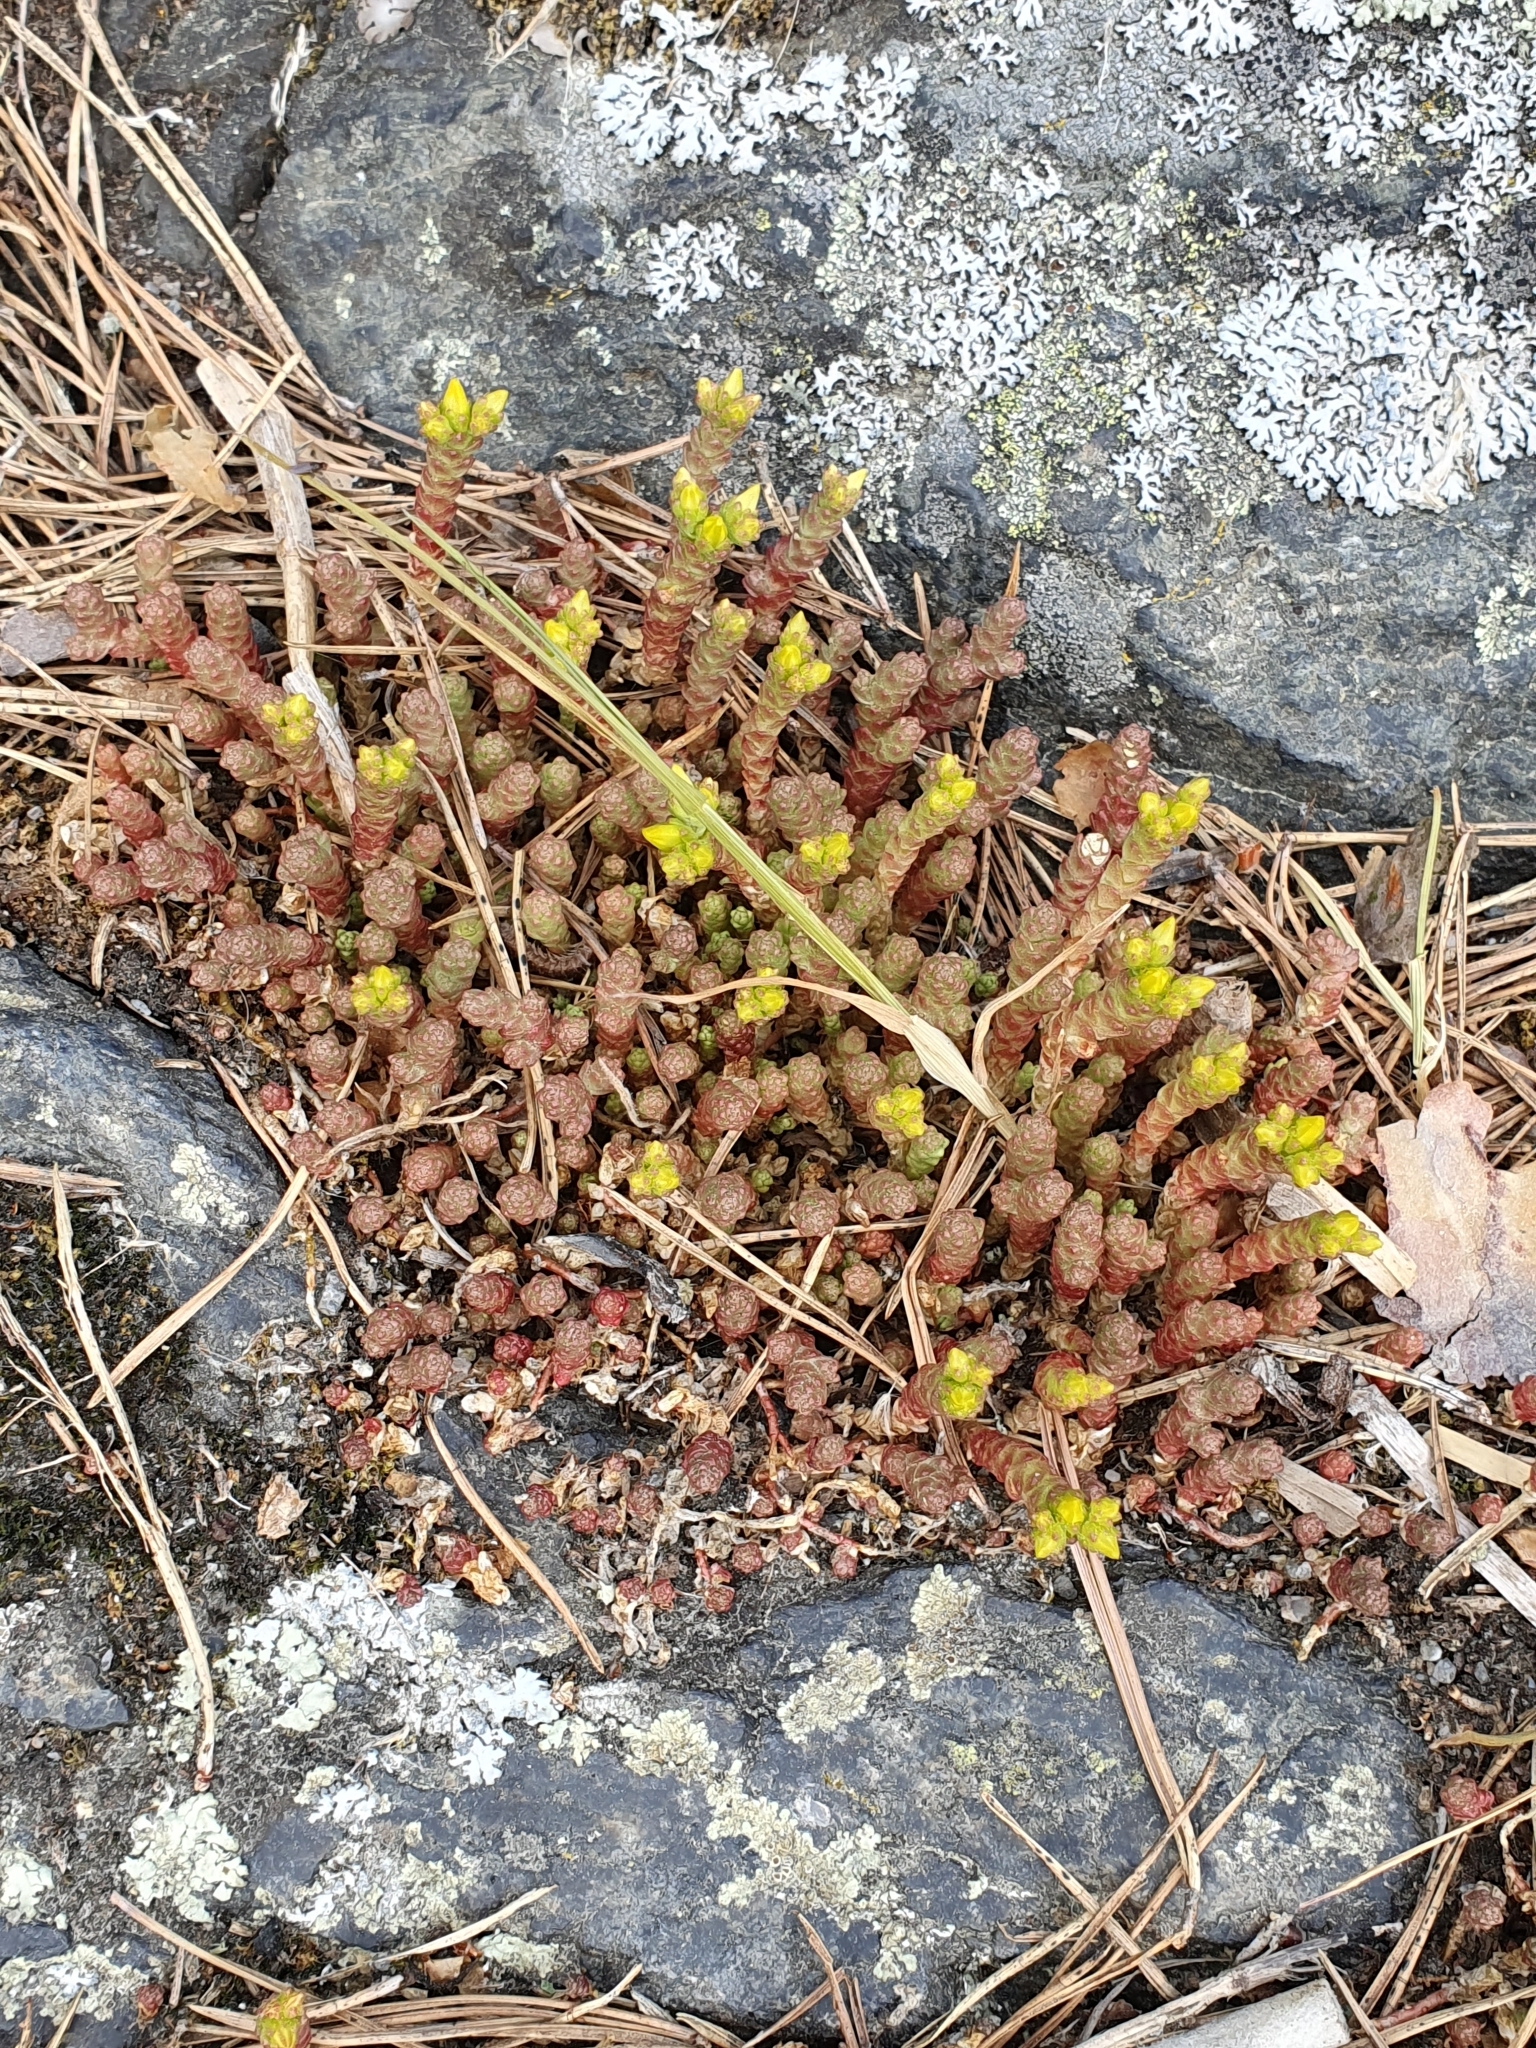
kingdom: Plantae
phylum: Tracheophyta
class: Magnoliopsida
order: Saxifragales
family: Crassulaceae
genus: Sedum
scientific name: Sedum acre
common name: Biting stonecrop
